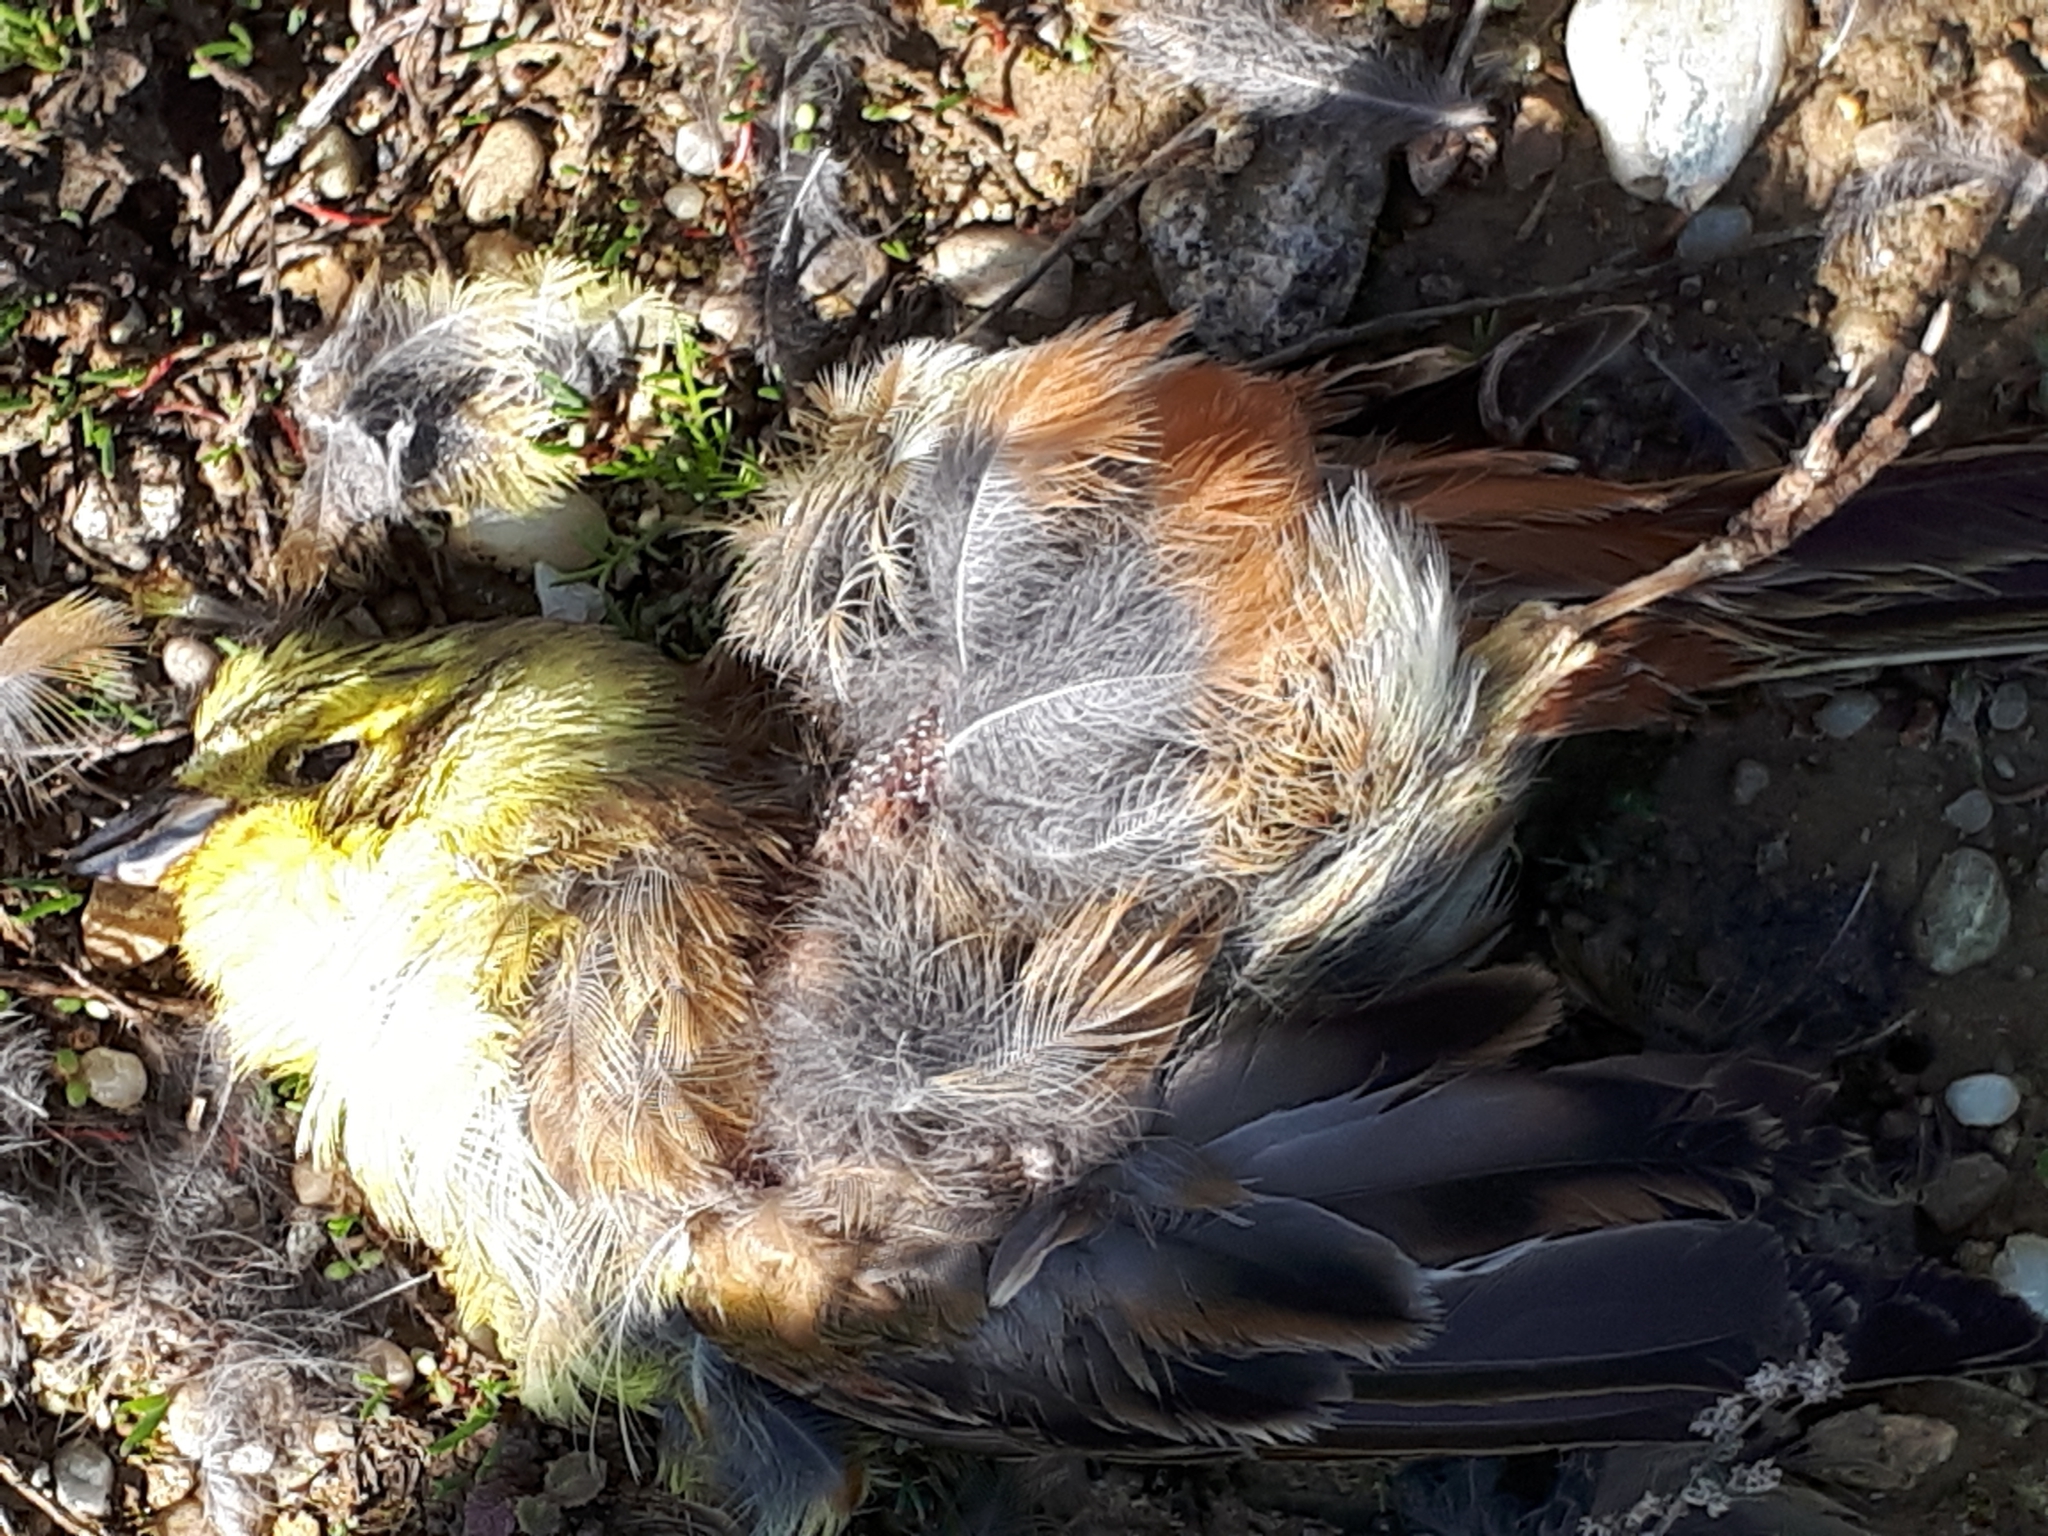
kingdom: Animalia
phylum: Chordata
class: Aves
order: Passeriformes
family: Emberizidae
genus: Emberiza
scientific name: Emberiza citrinella
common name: Yellowhammer
